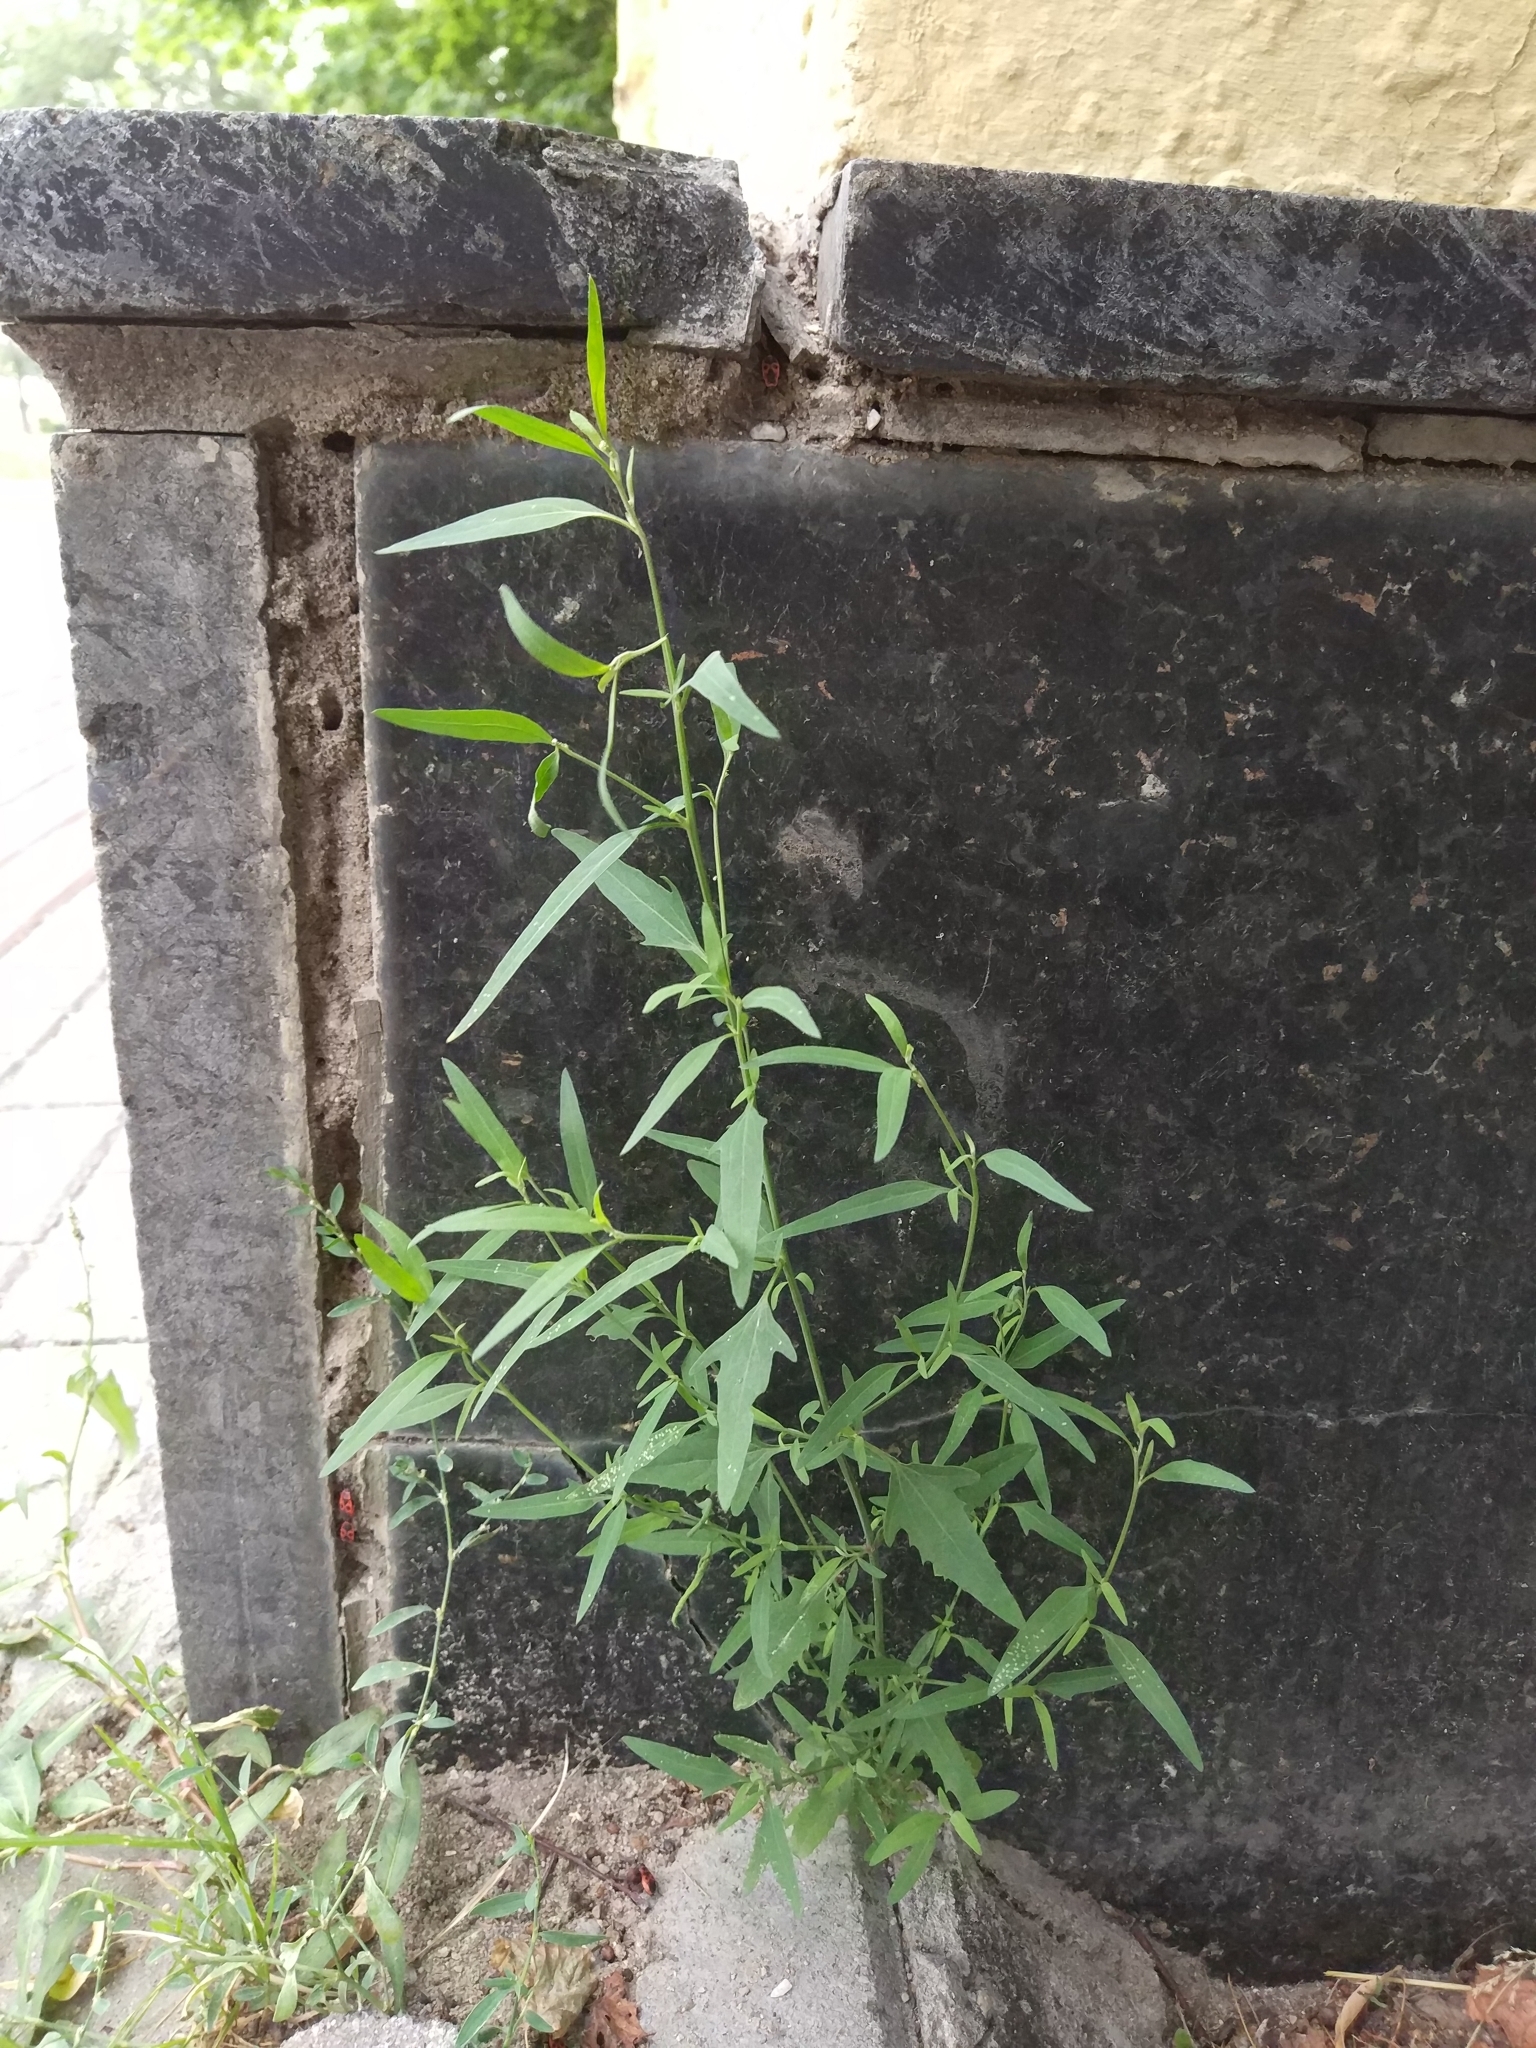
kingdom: Plantae
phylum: Tracheophyta
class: Magnoliopsida
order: Caryophyllales
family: Amaranthaceae
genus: Atriplex
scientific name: Atriplex patula
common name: Common orache
